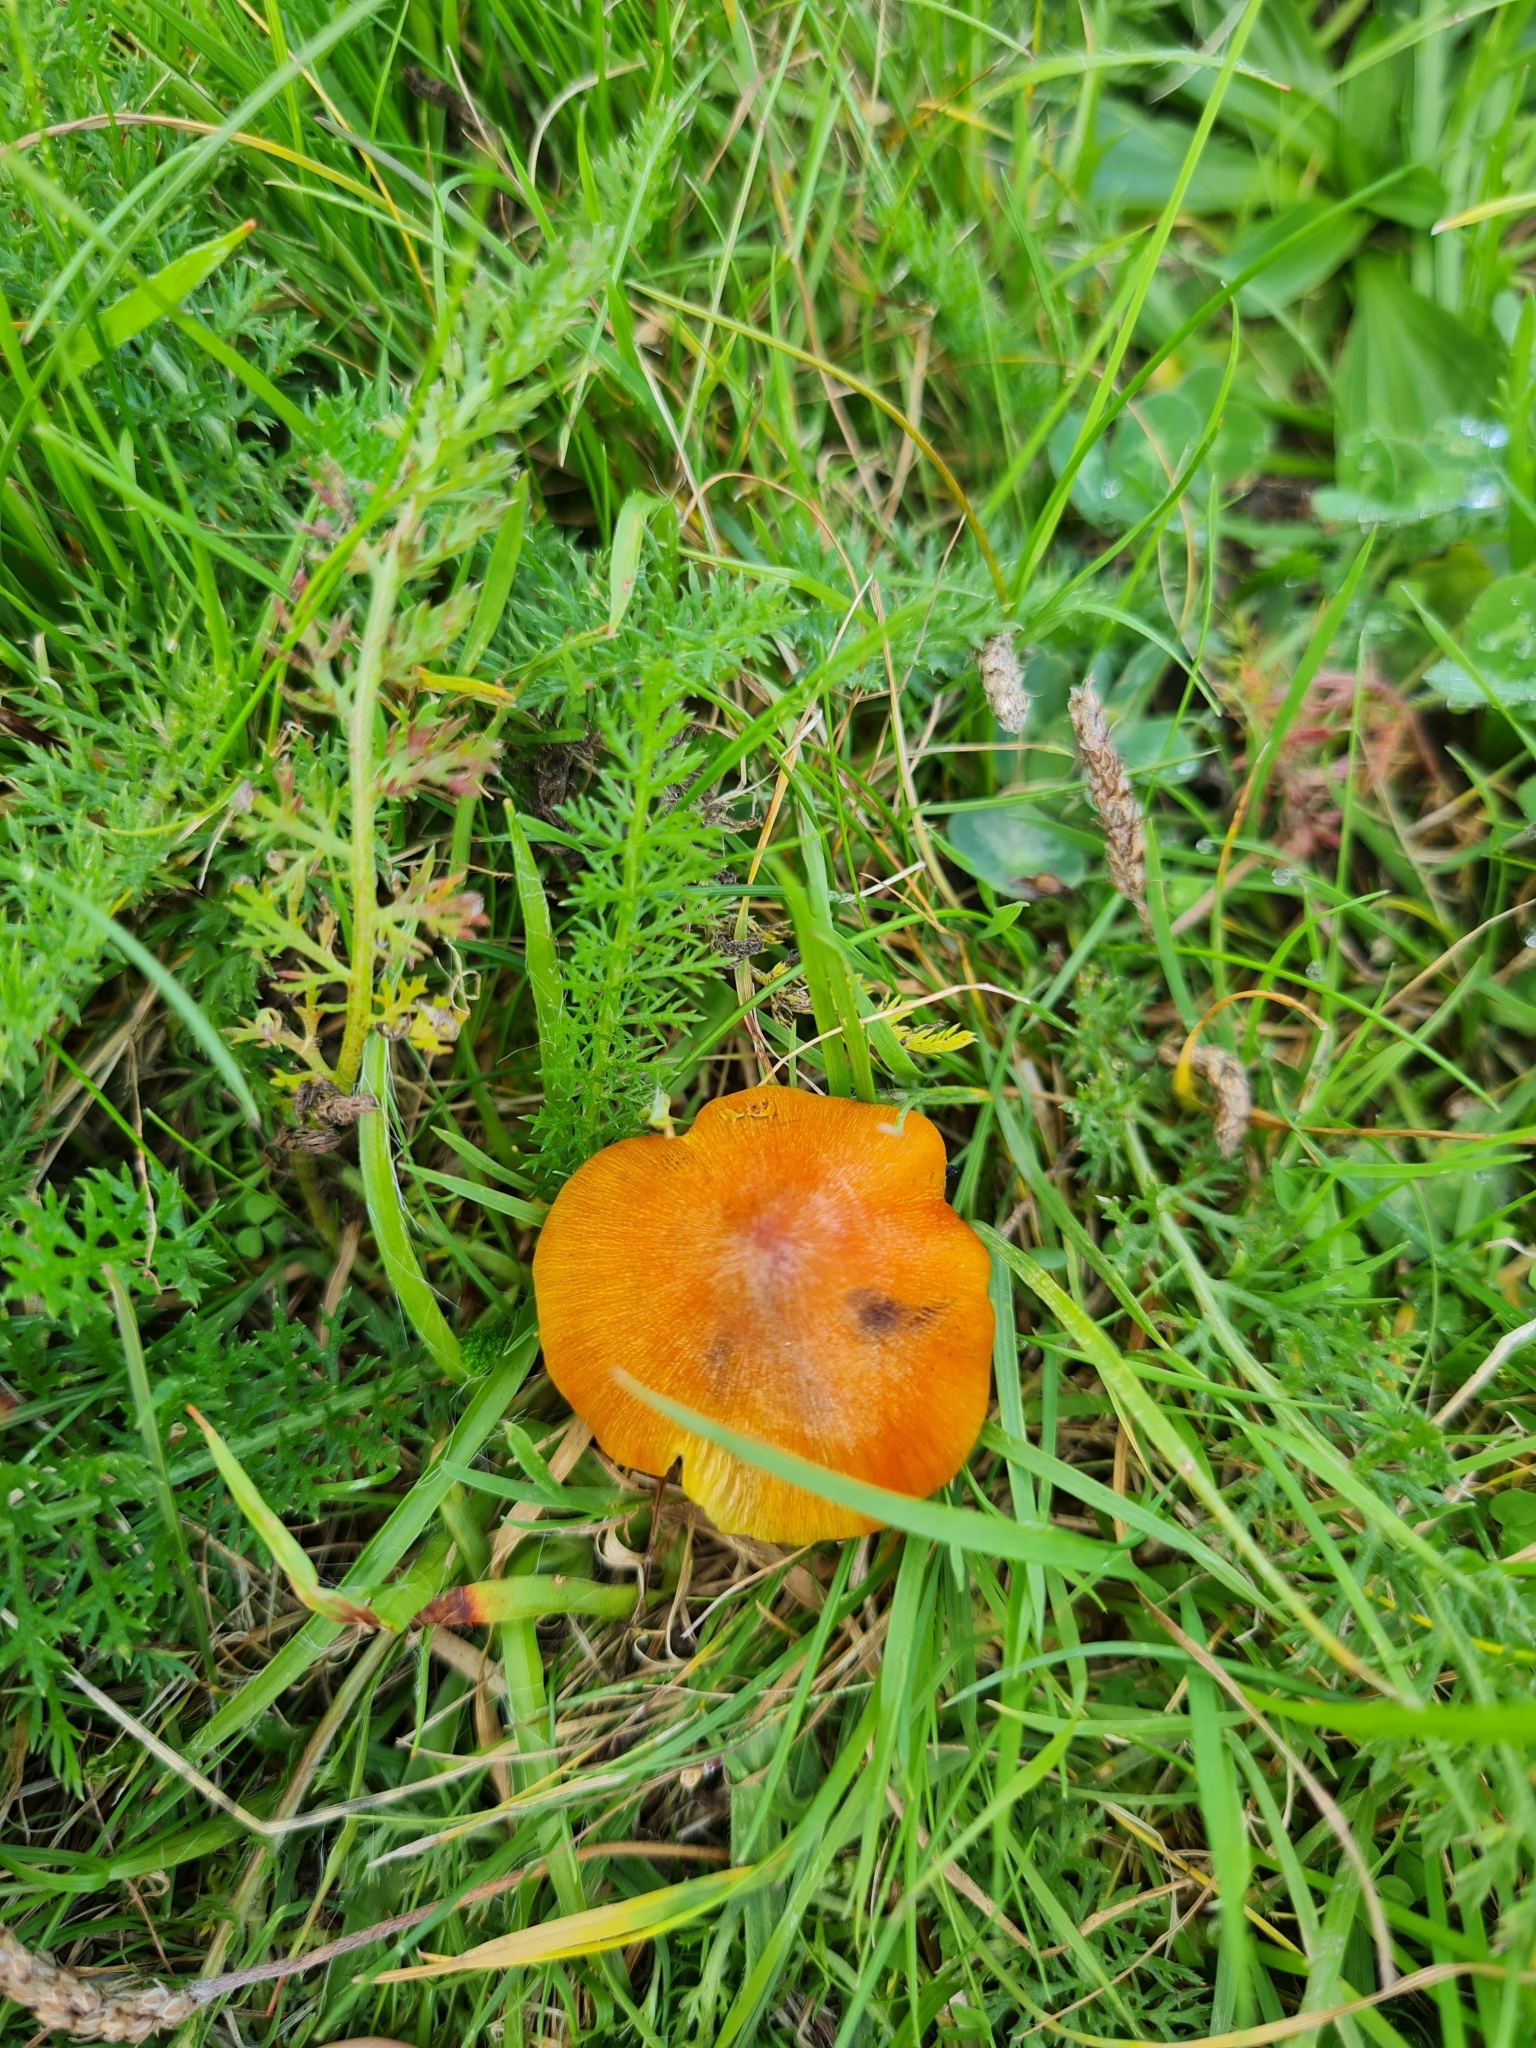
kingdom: Fungi
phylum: Basidiomycota
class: Agaricomycetes
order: Agaricales
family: Hygrophoraceae
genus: Hygrocybe
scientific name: Hygrocybe conica
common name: Blackening wax-cap
